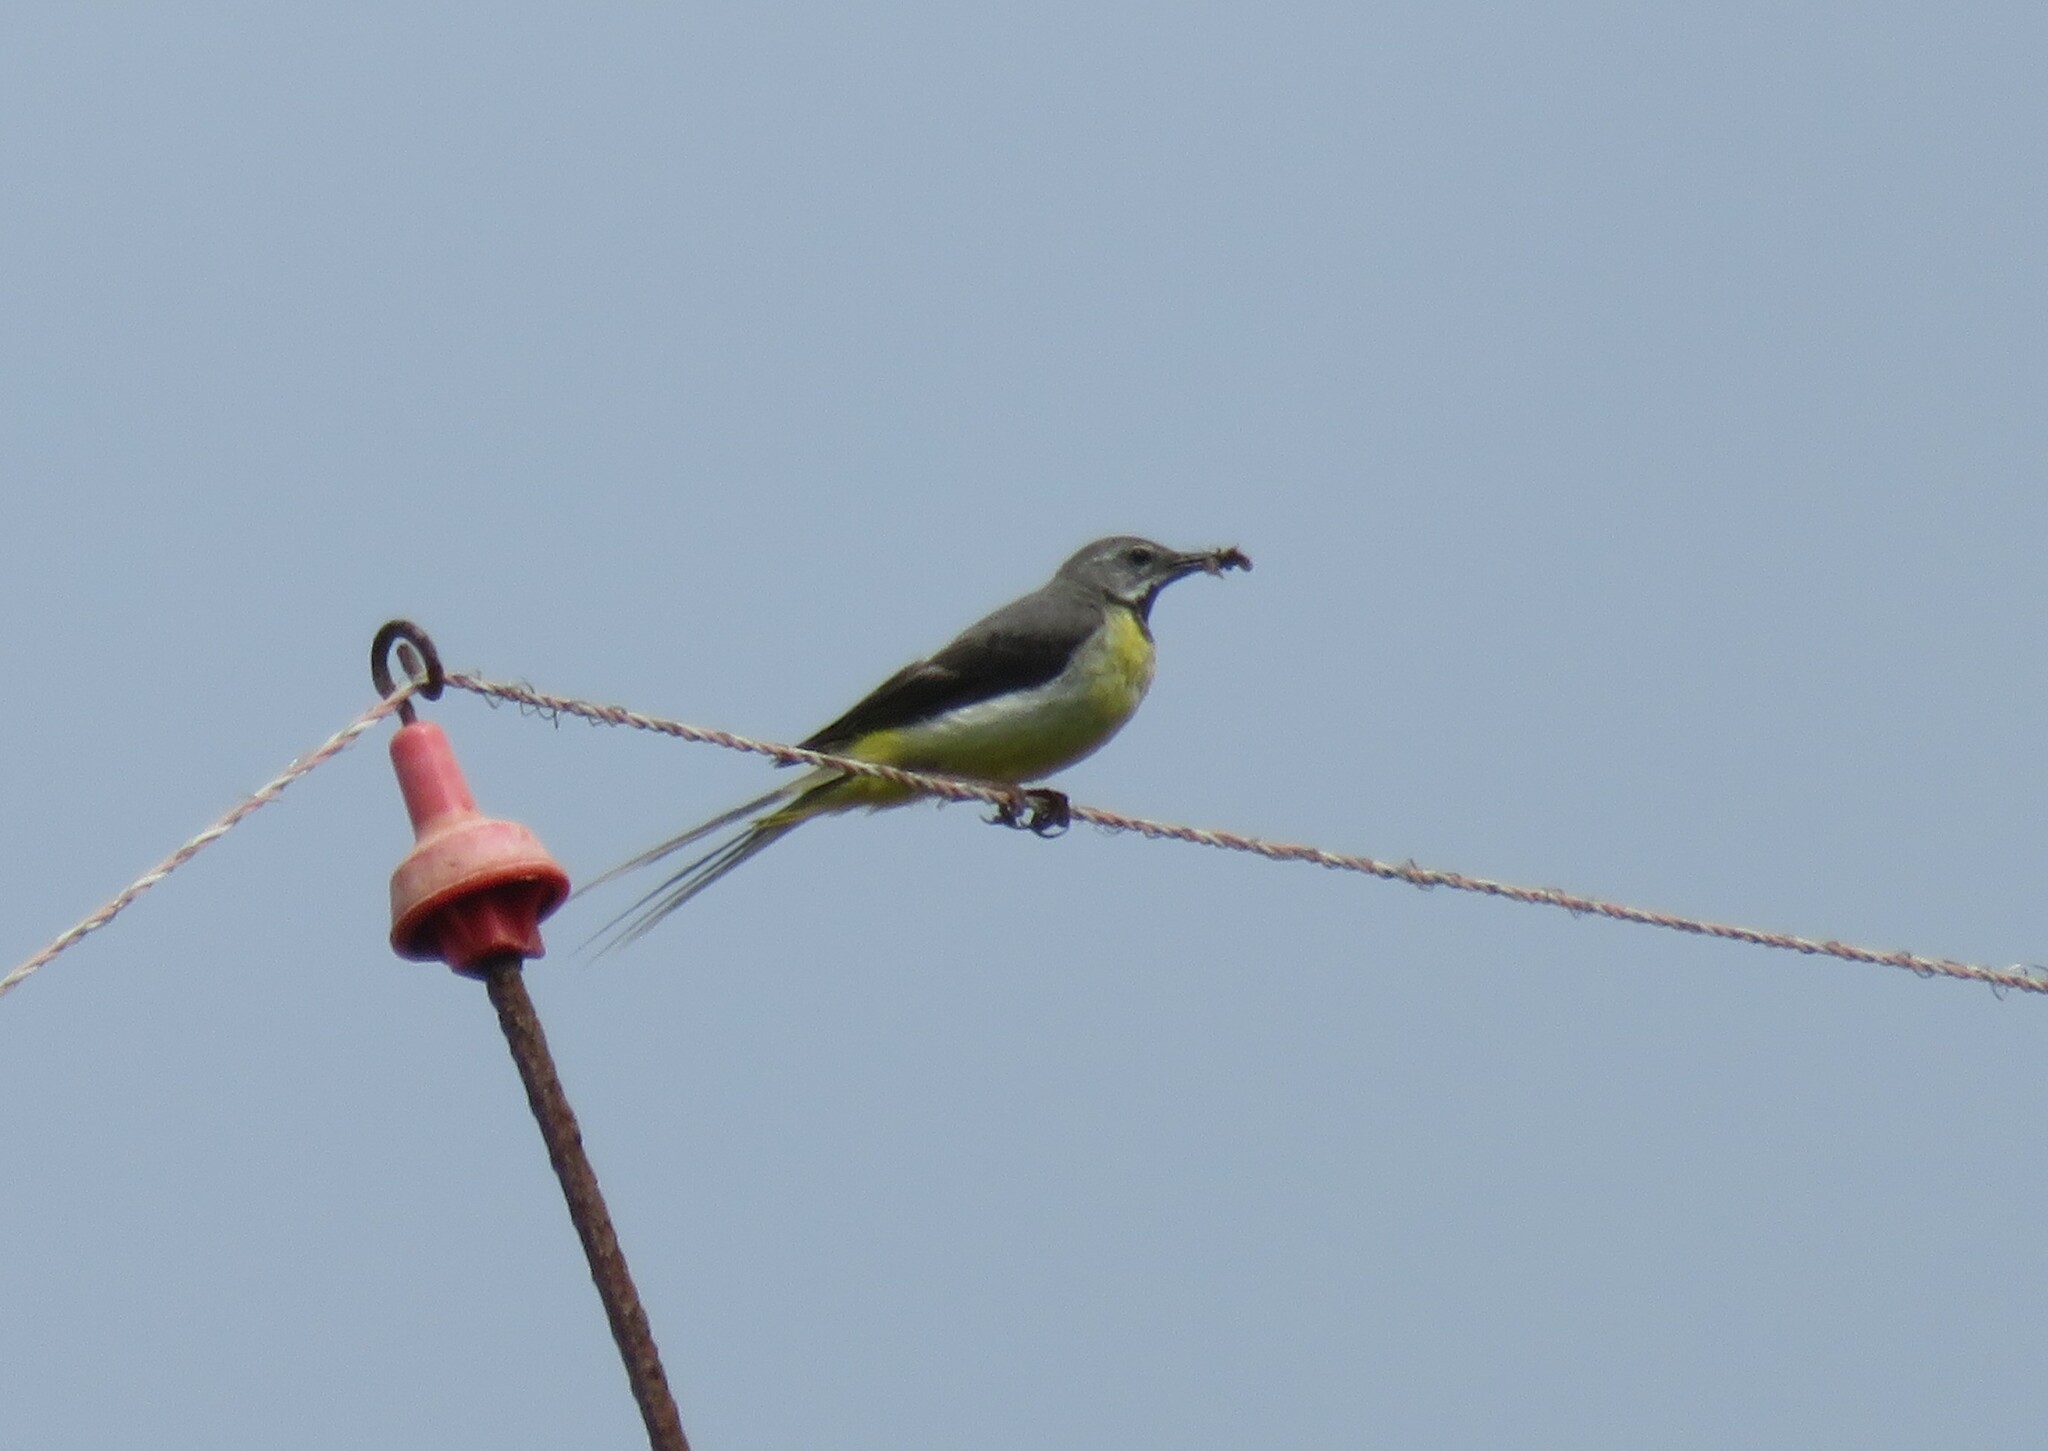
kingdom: Animalia
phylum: Chordata
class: Aves
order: Passeriformes
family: Motacillidae
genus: Motacilla
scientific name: Motacilla cinerea
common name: Grey wagtail
